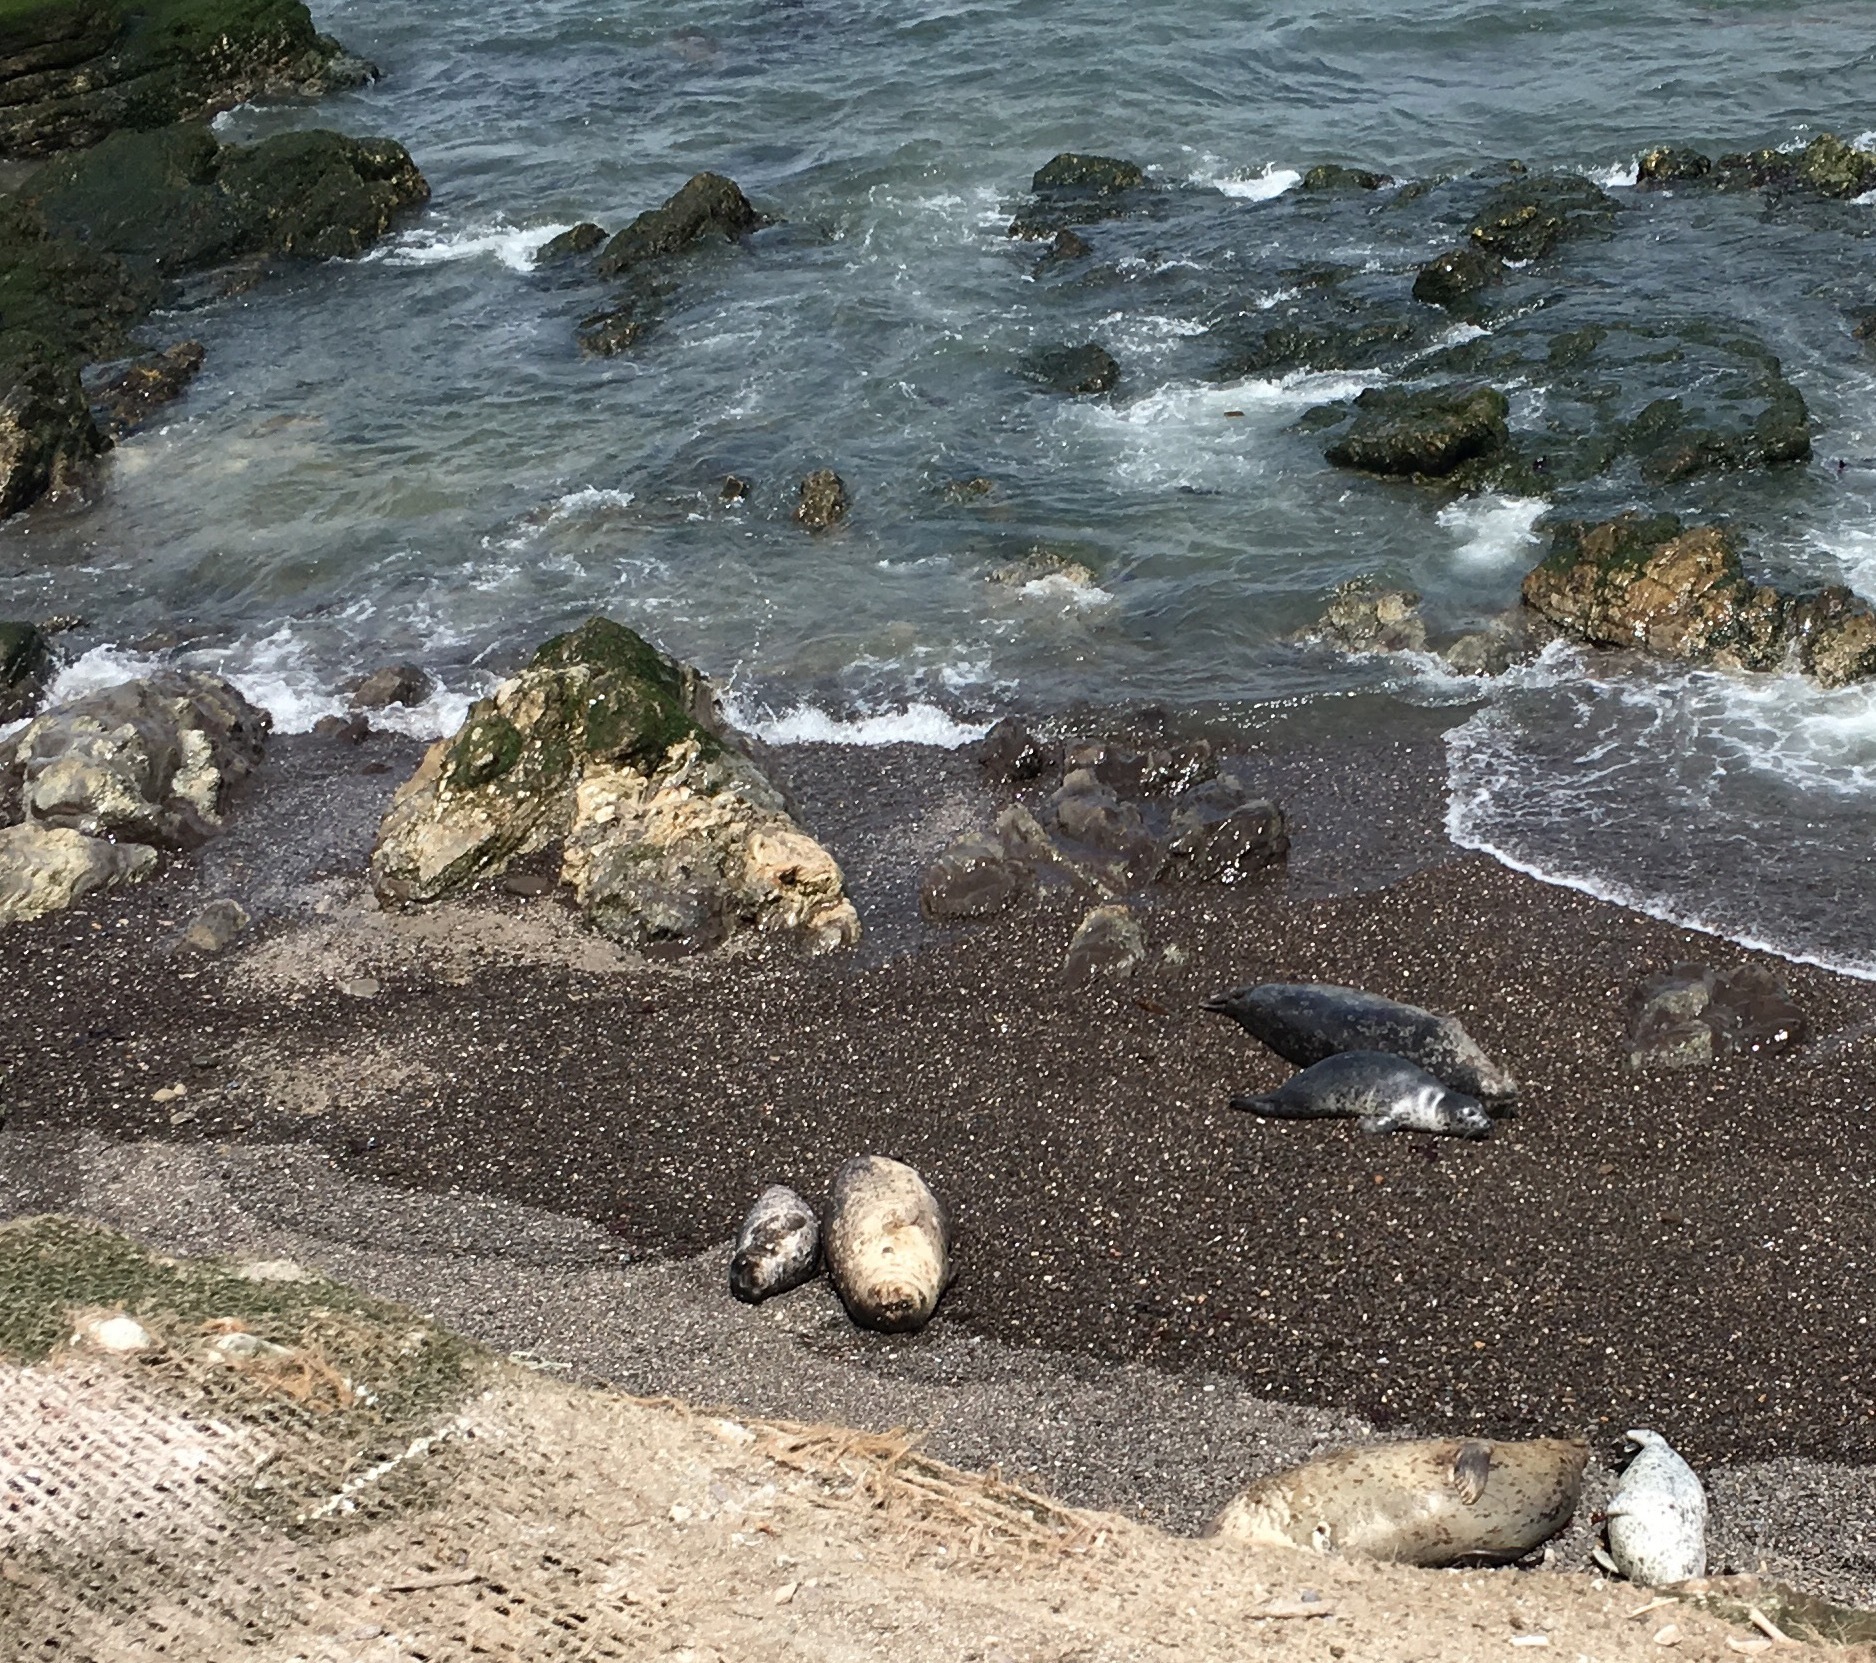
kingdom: Animalia
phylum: Chordata
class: Mammalia
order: Carnivora
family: Phocidae
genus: Phoca
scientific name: Phoca vitulina
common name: Harbor seal
